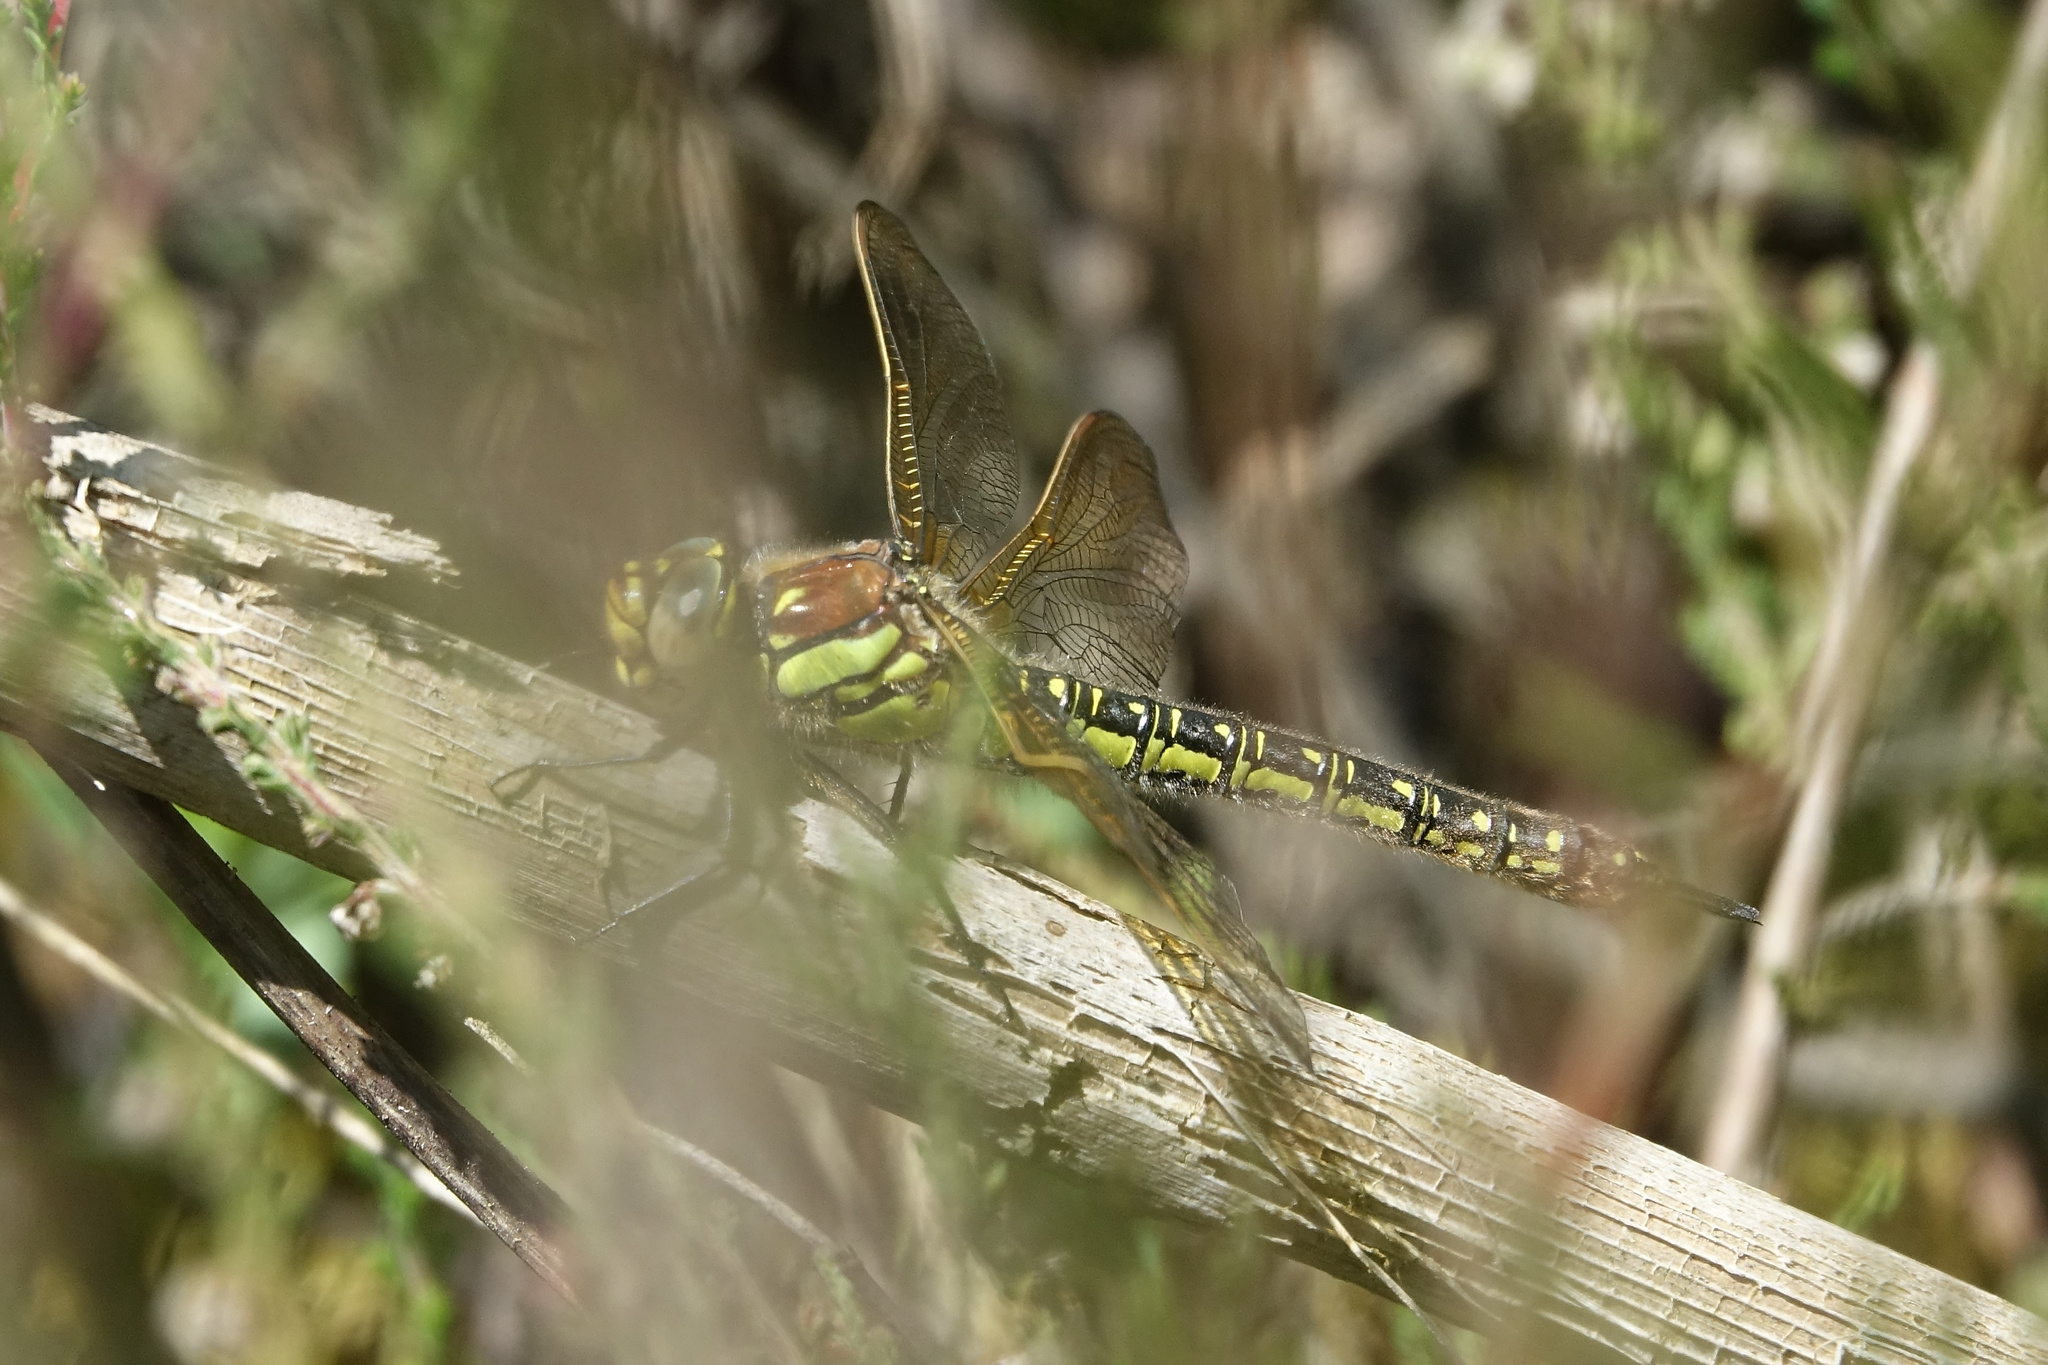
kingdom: Animalia
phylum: Arthropoda
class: Insecta
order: Odonata
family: Aeshnidae
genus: Brachytron
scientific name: Brachytron pratense
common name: Hairy hawker
